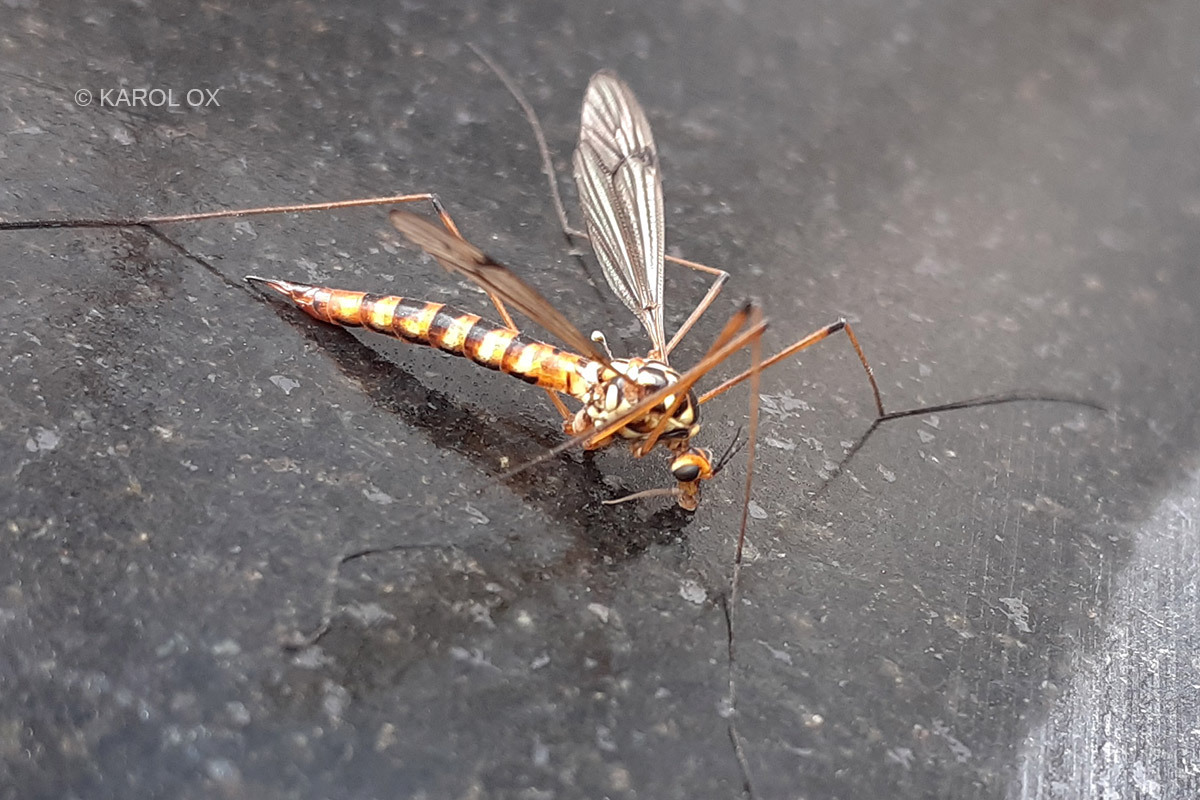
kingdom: Animalia
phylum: Arthropoda
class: Insecta
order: Diptera
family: Tipulidae
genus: Nephrotoma
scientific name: Nephrotoma scalaris
